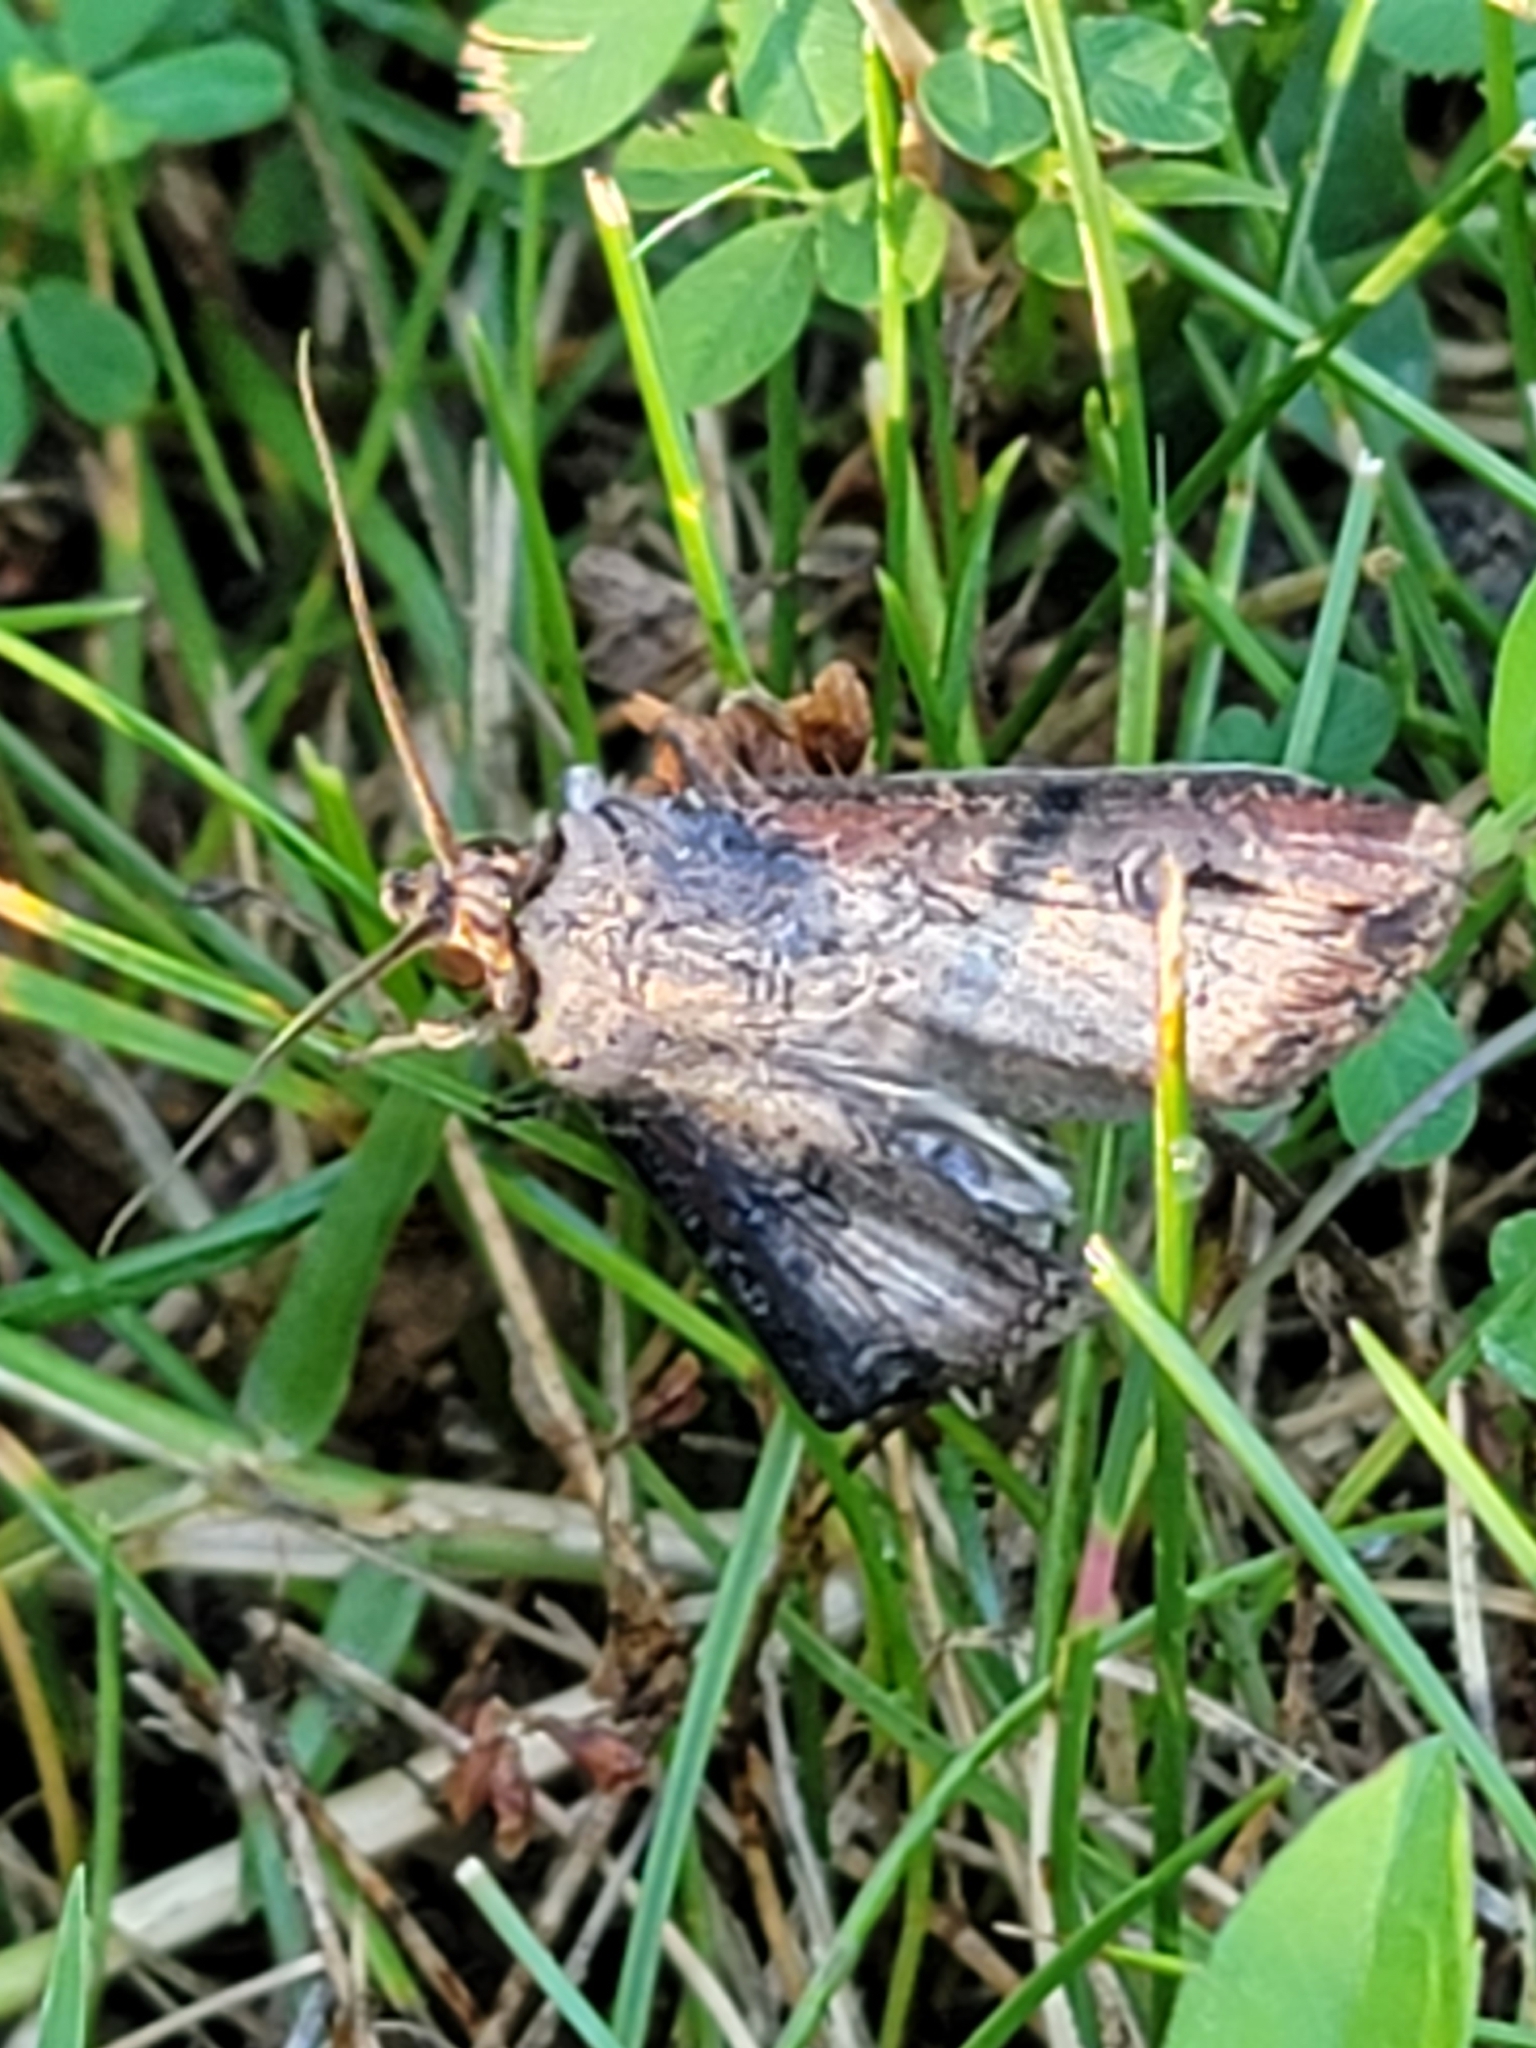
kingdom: Animalia
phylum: Arthropoda
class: Insecta
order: Lepidoptera
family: Noctuidae
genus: Agrotis
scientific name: Agrotis ipsilon
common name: Dark sword-grass
